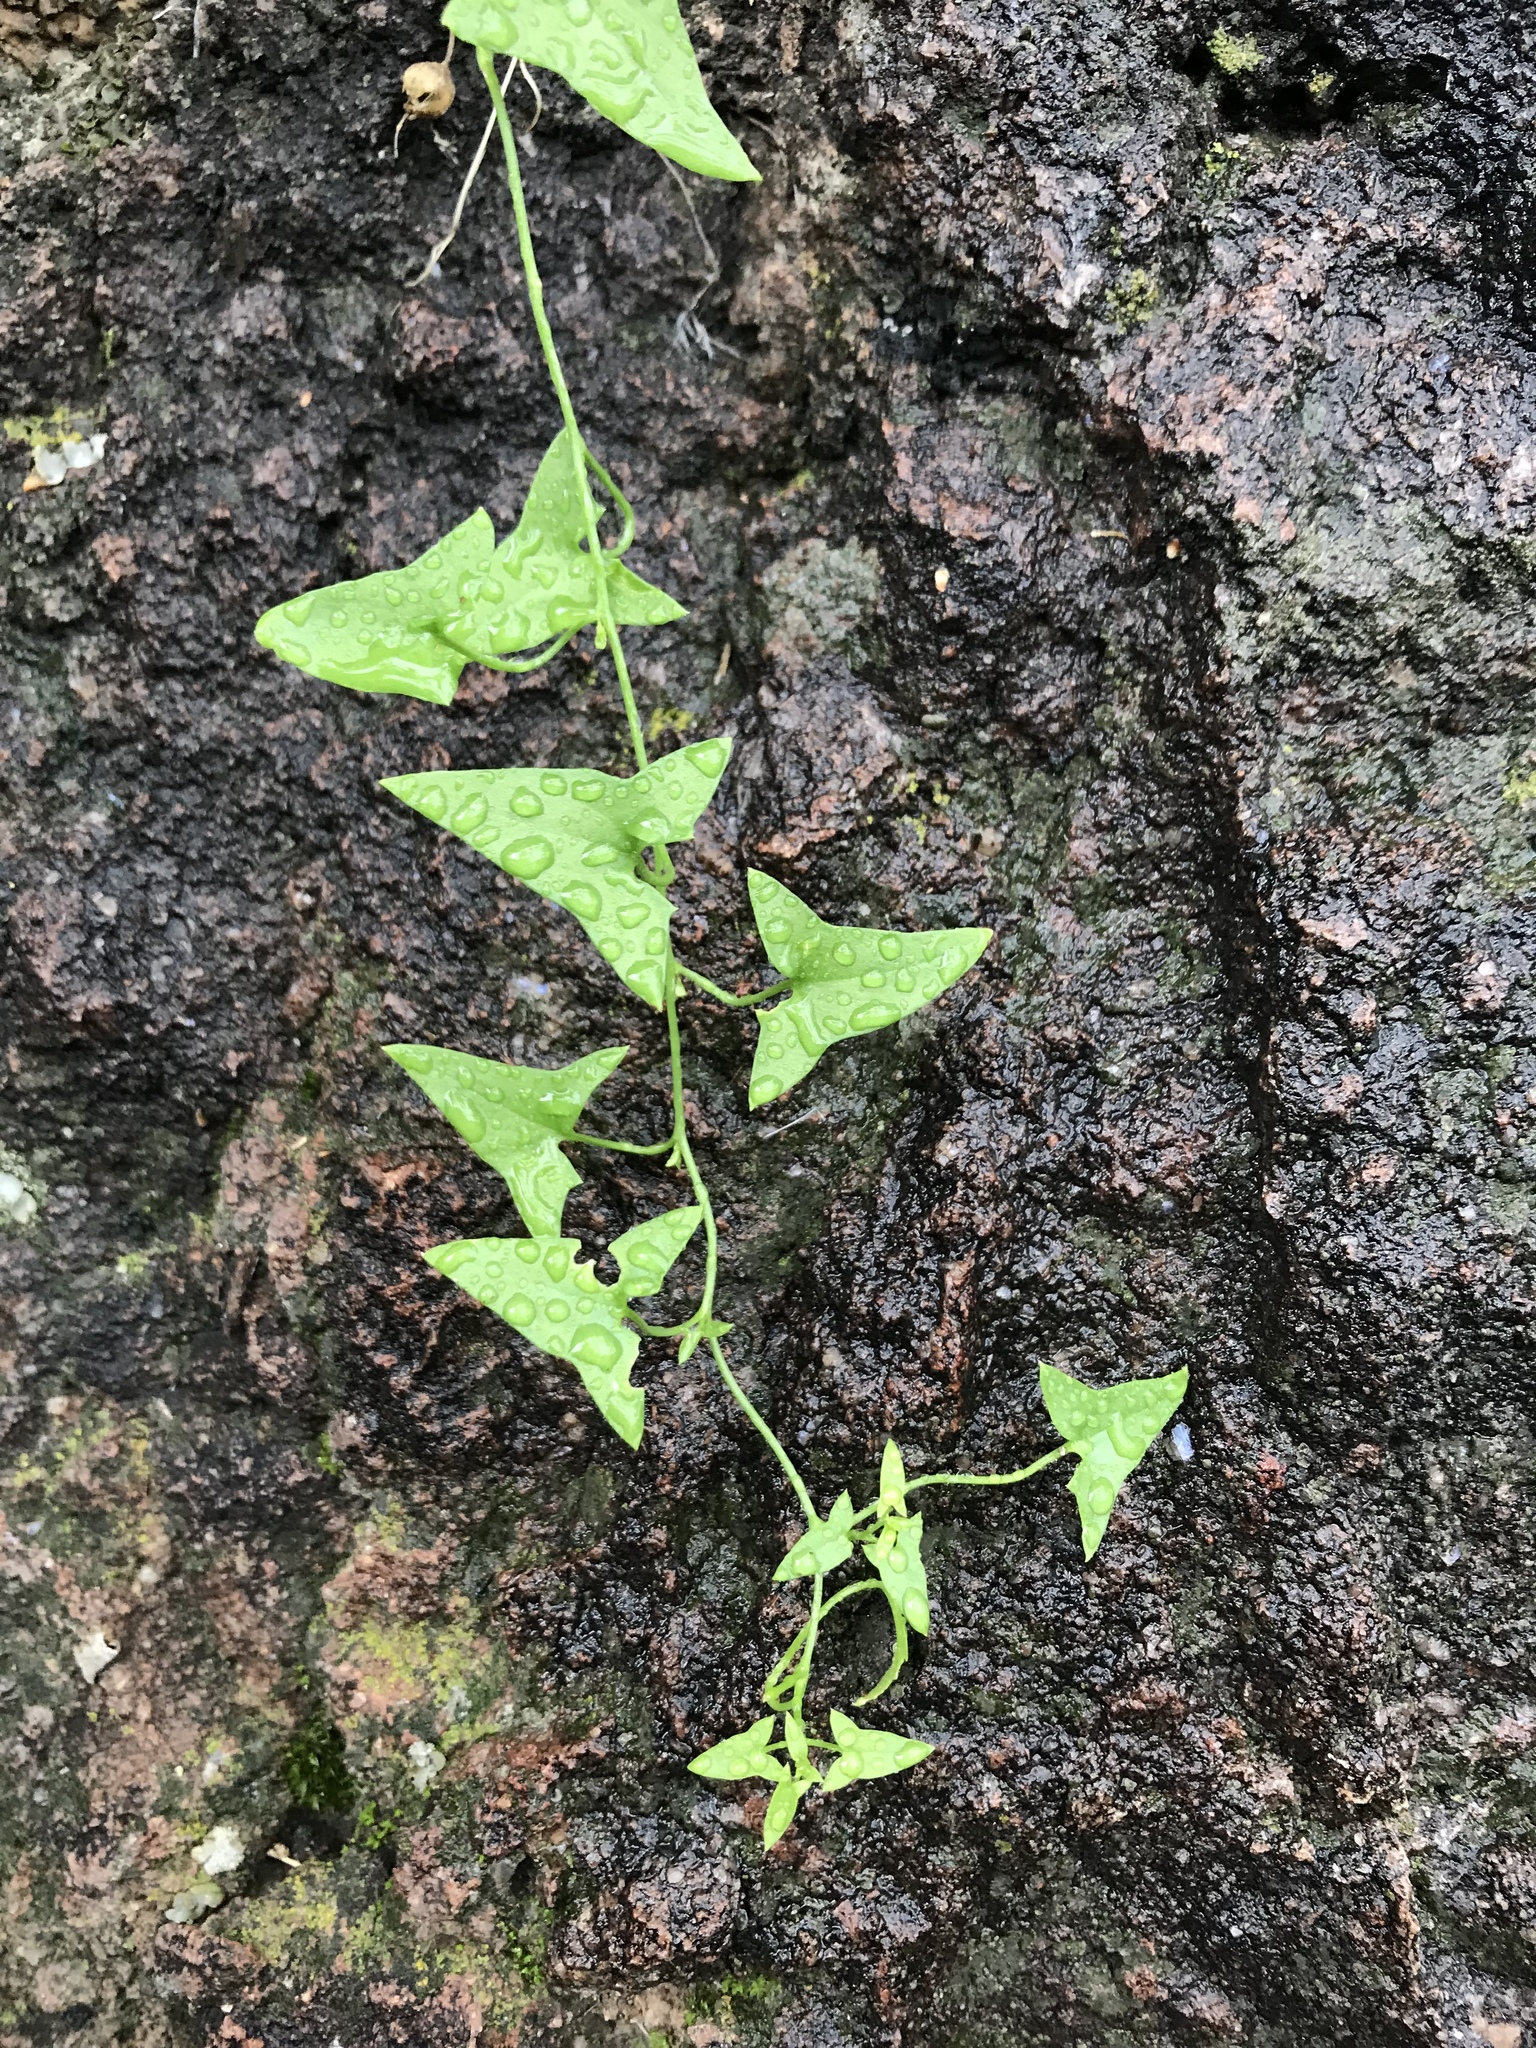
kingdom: Plantae
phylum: Tracheophyta
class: Magnoliopsida
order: Lamiales
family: Plantaginaceae
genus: Maurandella
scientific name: Maurandella antirrhiniflora
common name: Violet twining-snapdragon
